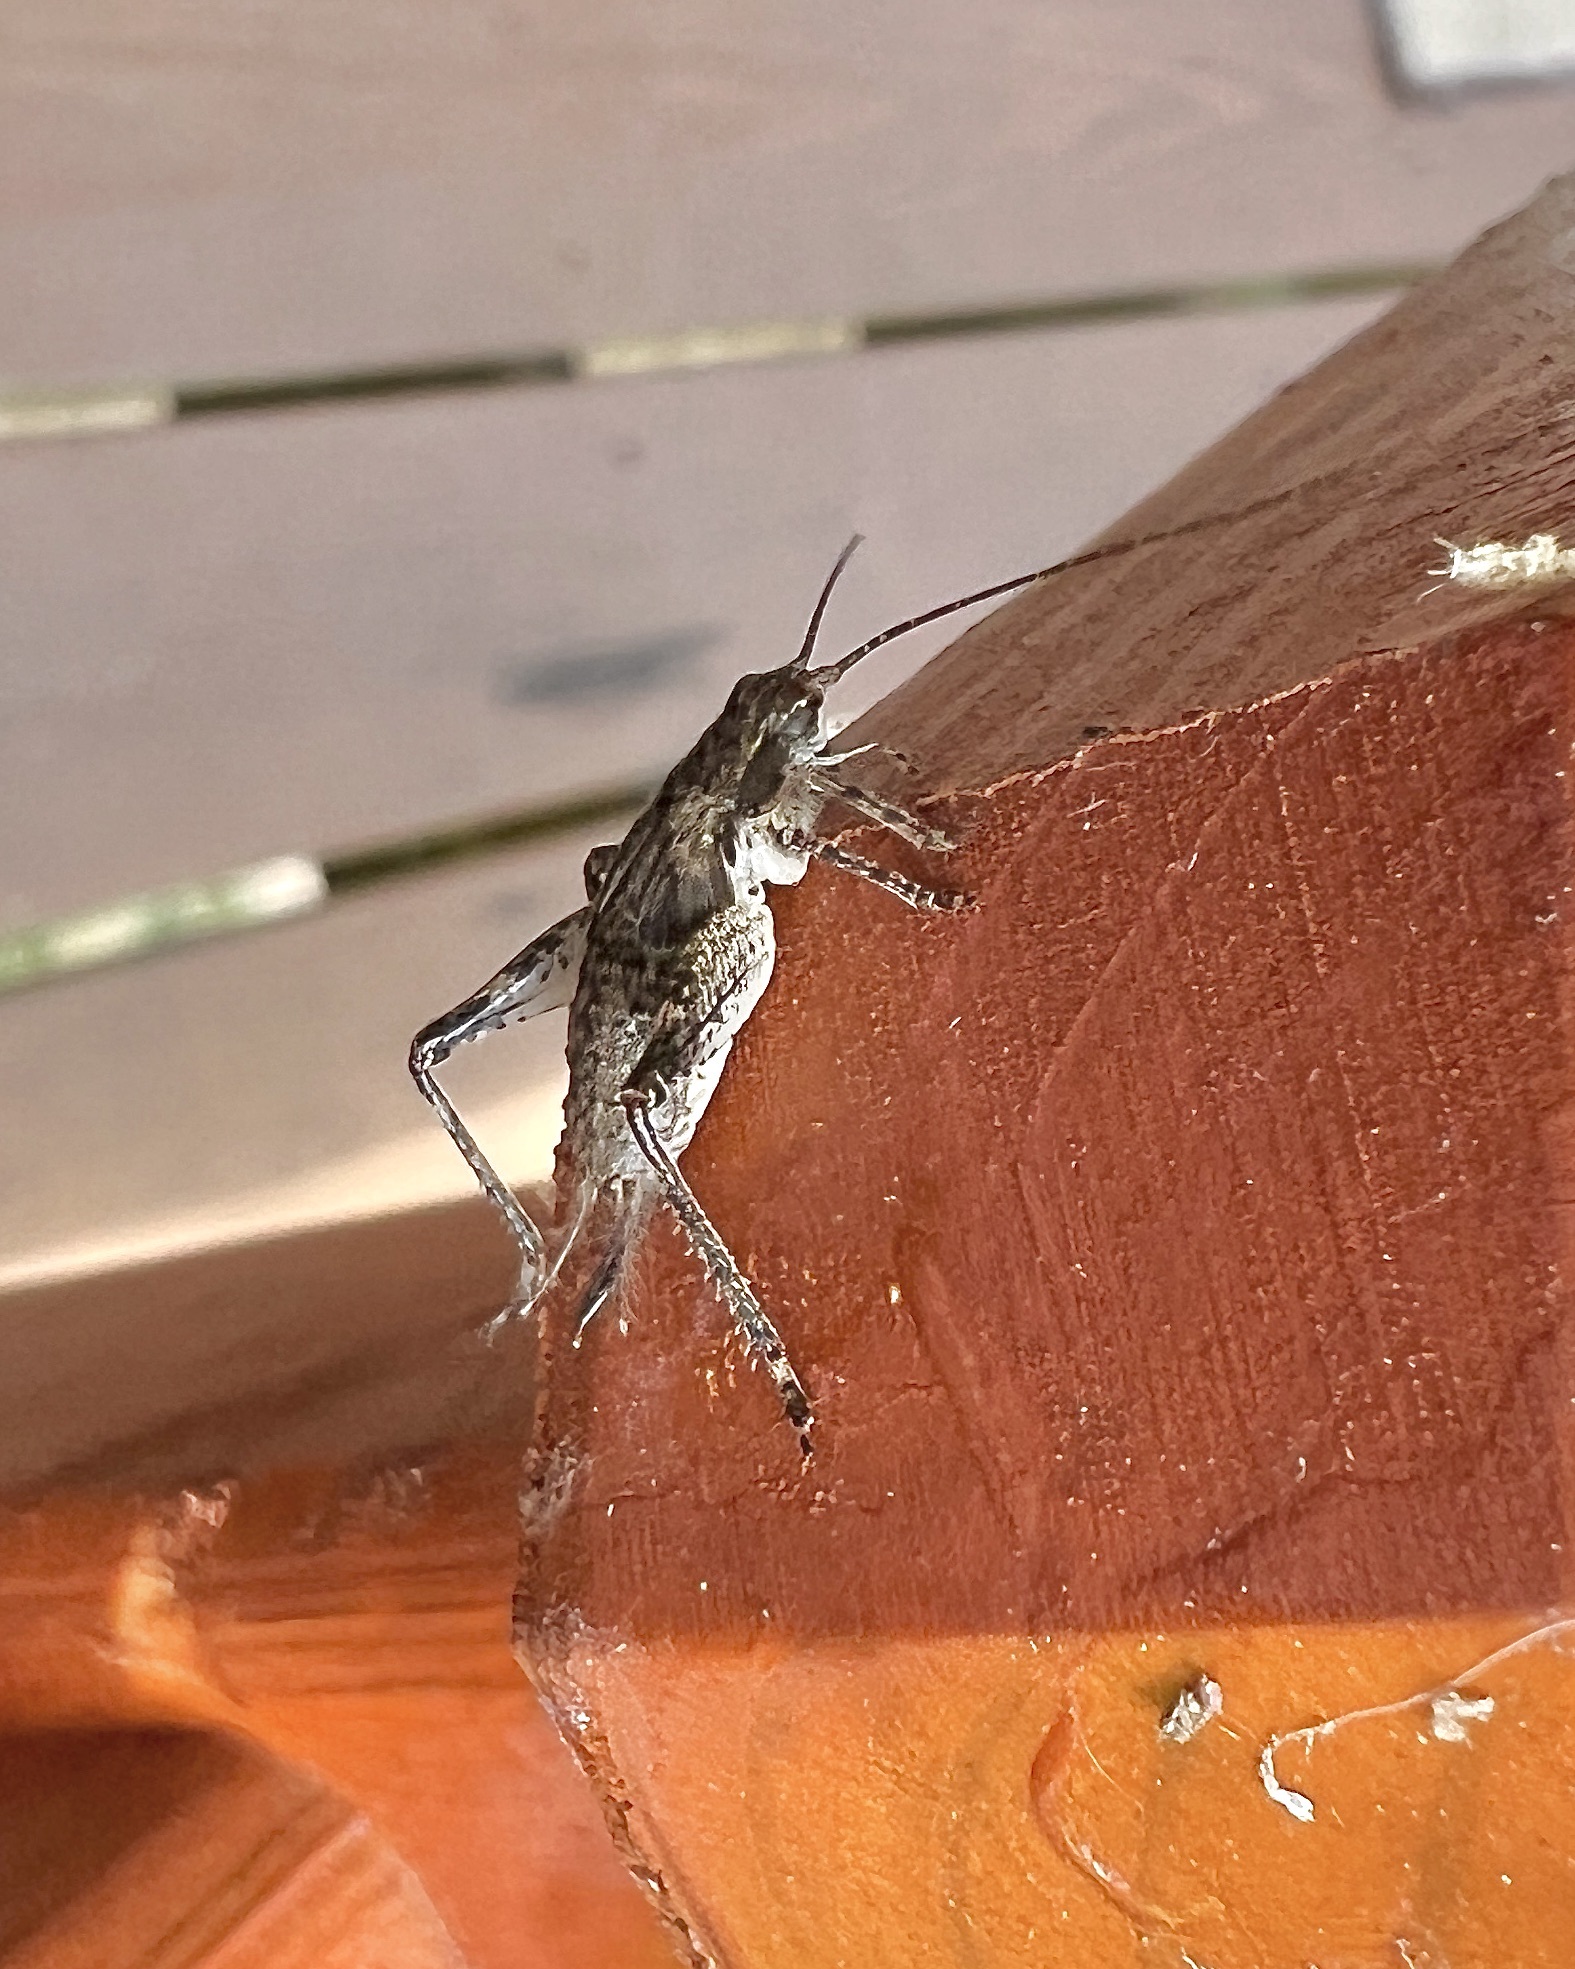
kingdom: Animalia
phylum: Arthropoda
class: Insecta
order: Orthoptera
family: Gryllidae
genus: Hapithus
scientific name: Hapithus saltator
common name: Jumping bush cricket
